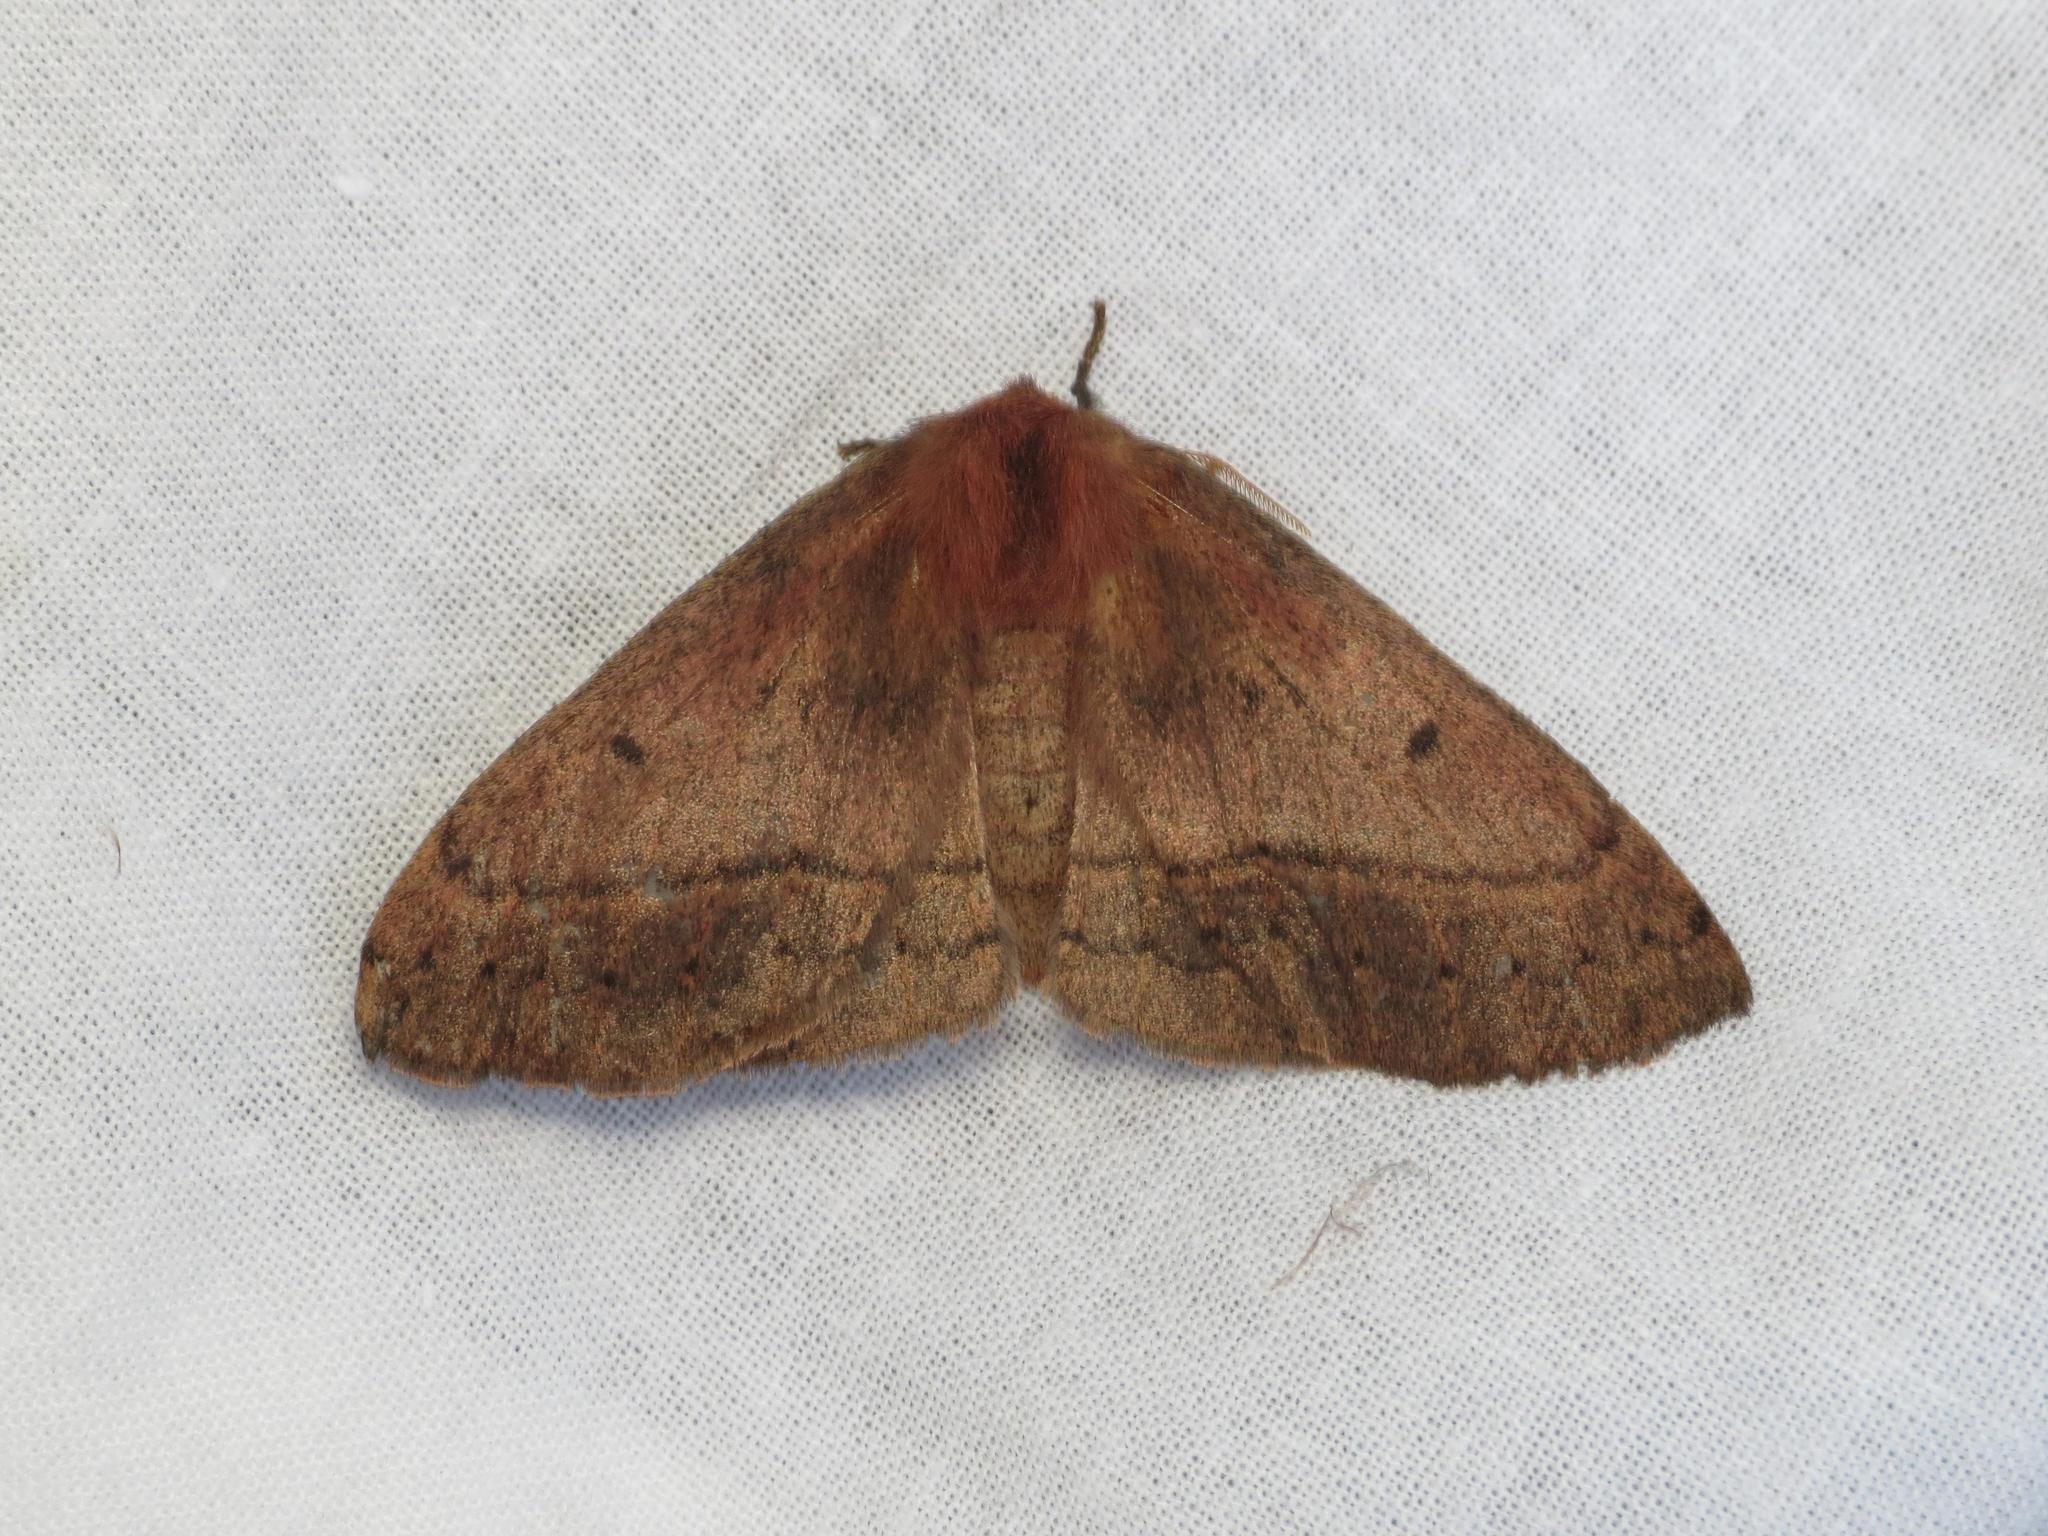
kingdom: Animalia
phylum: Arthropoda
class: Insecta
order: Lepidoptera
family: Anthelidae
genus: Anthela
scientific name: Anthela repleta
